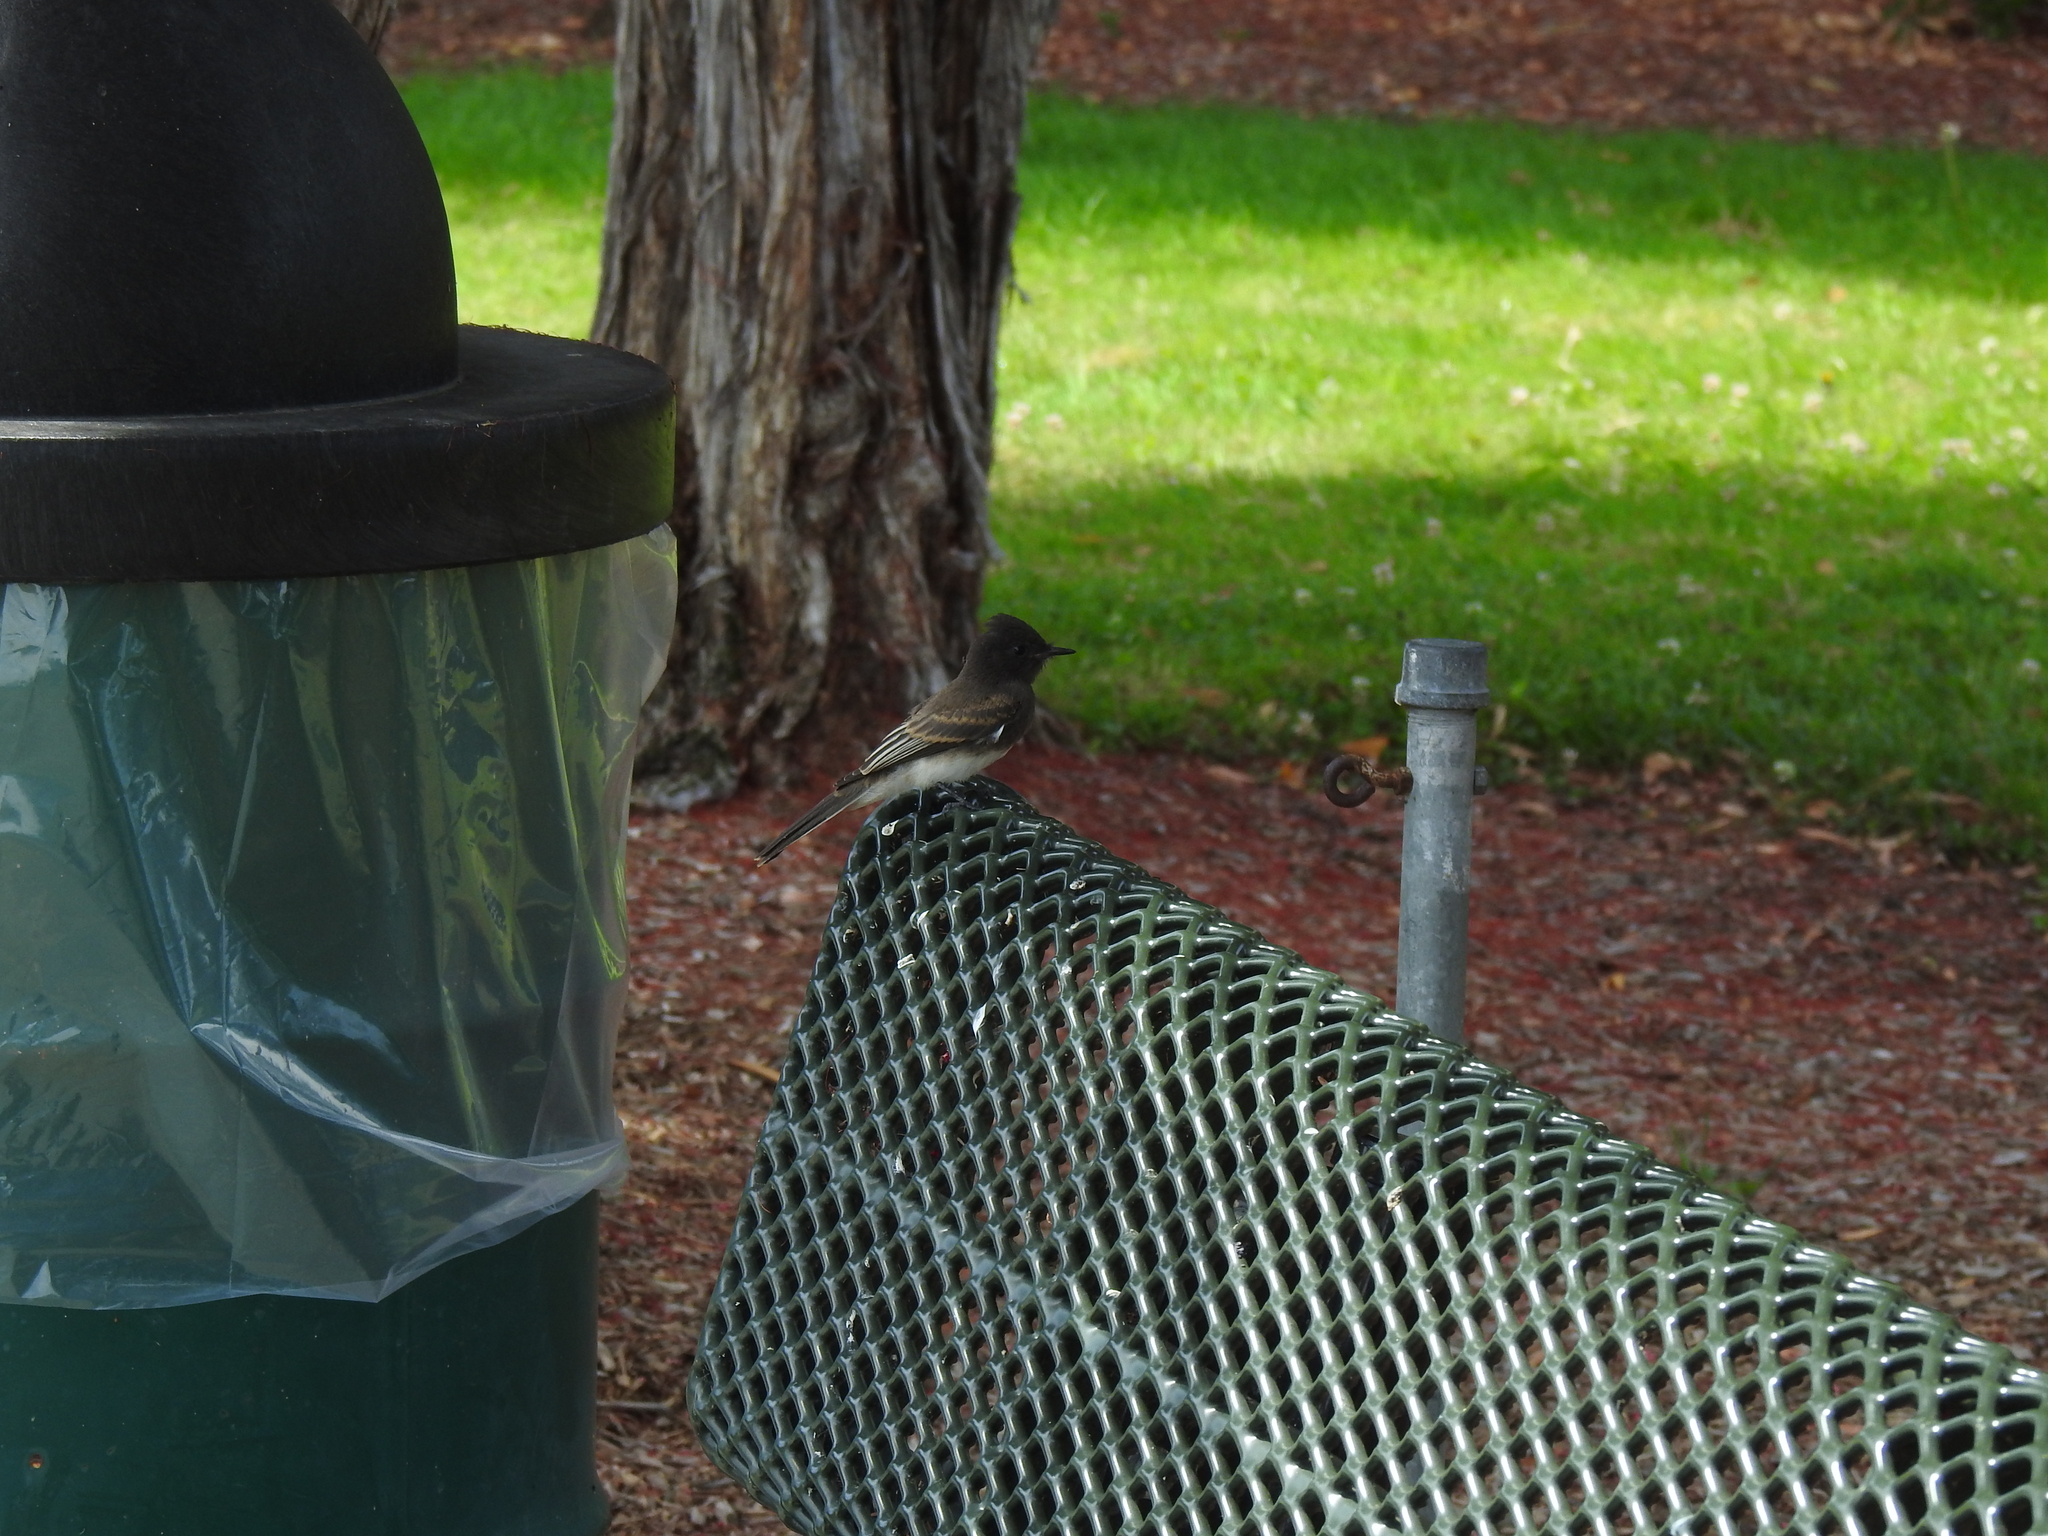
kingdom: Animalia
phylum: Chordata
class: Aves
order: Passeriformes
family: Tyrannidae
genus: Sayornis
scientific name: Sayornis nigricans
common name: Black phoebe
